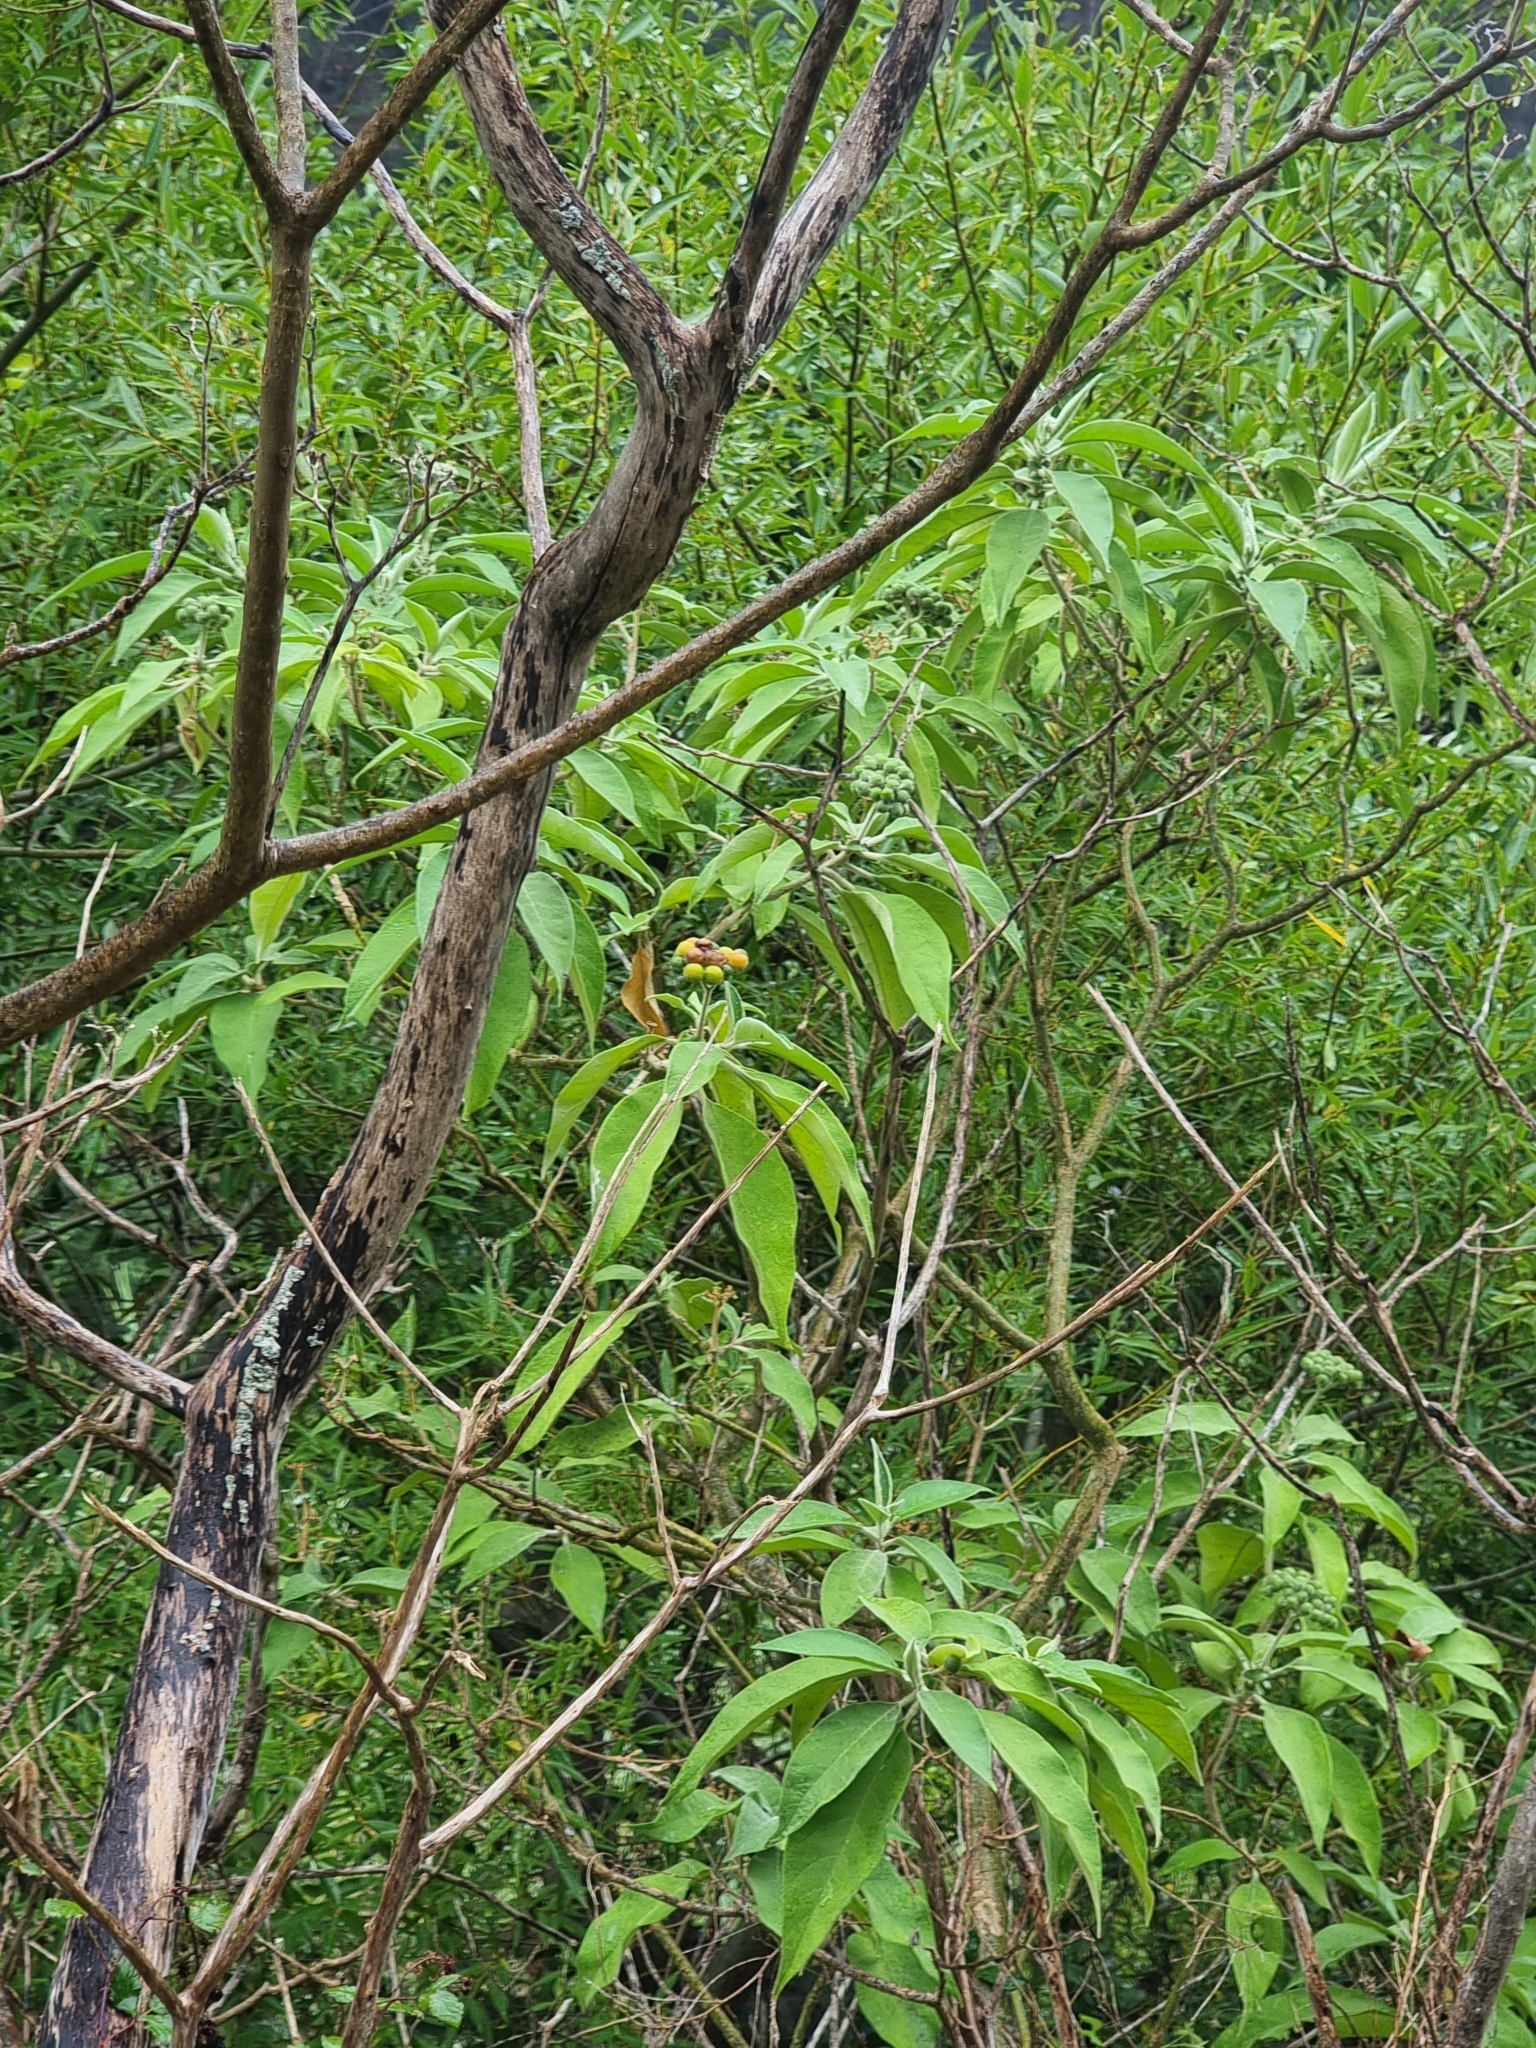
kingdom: Plantae
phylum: Tracheophyta
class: Magnoliopsida
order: Solanales
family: Solanaceae
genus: Solanum
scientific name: Solanum mauritianum
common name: Earleaf nightshade
